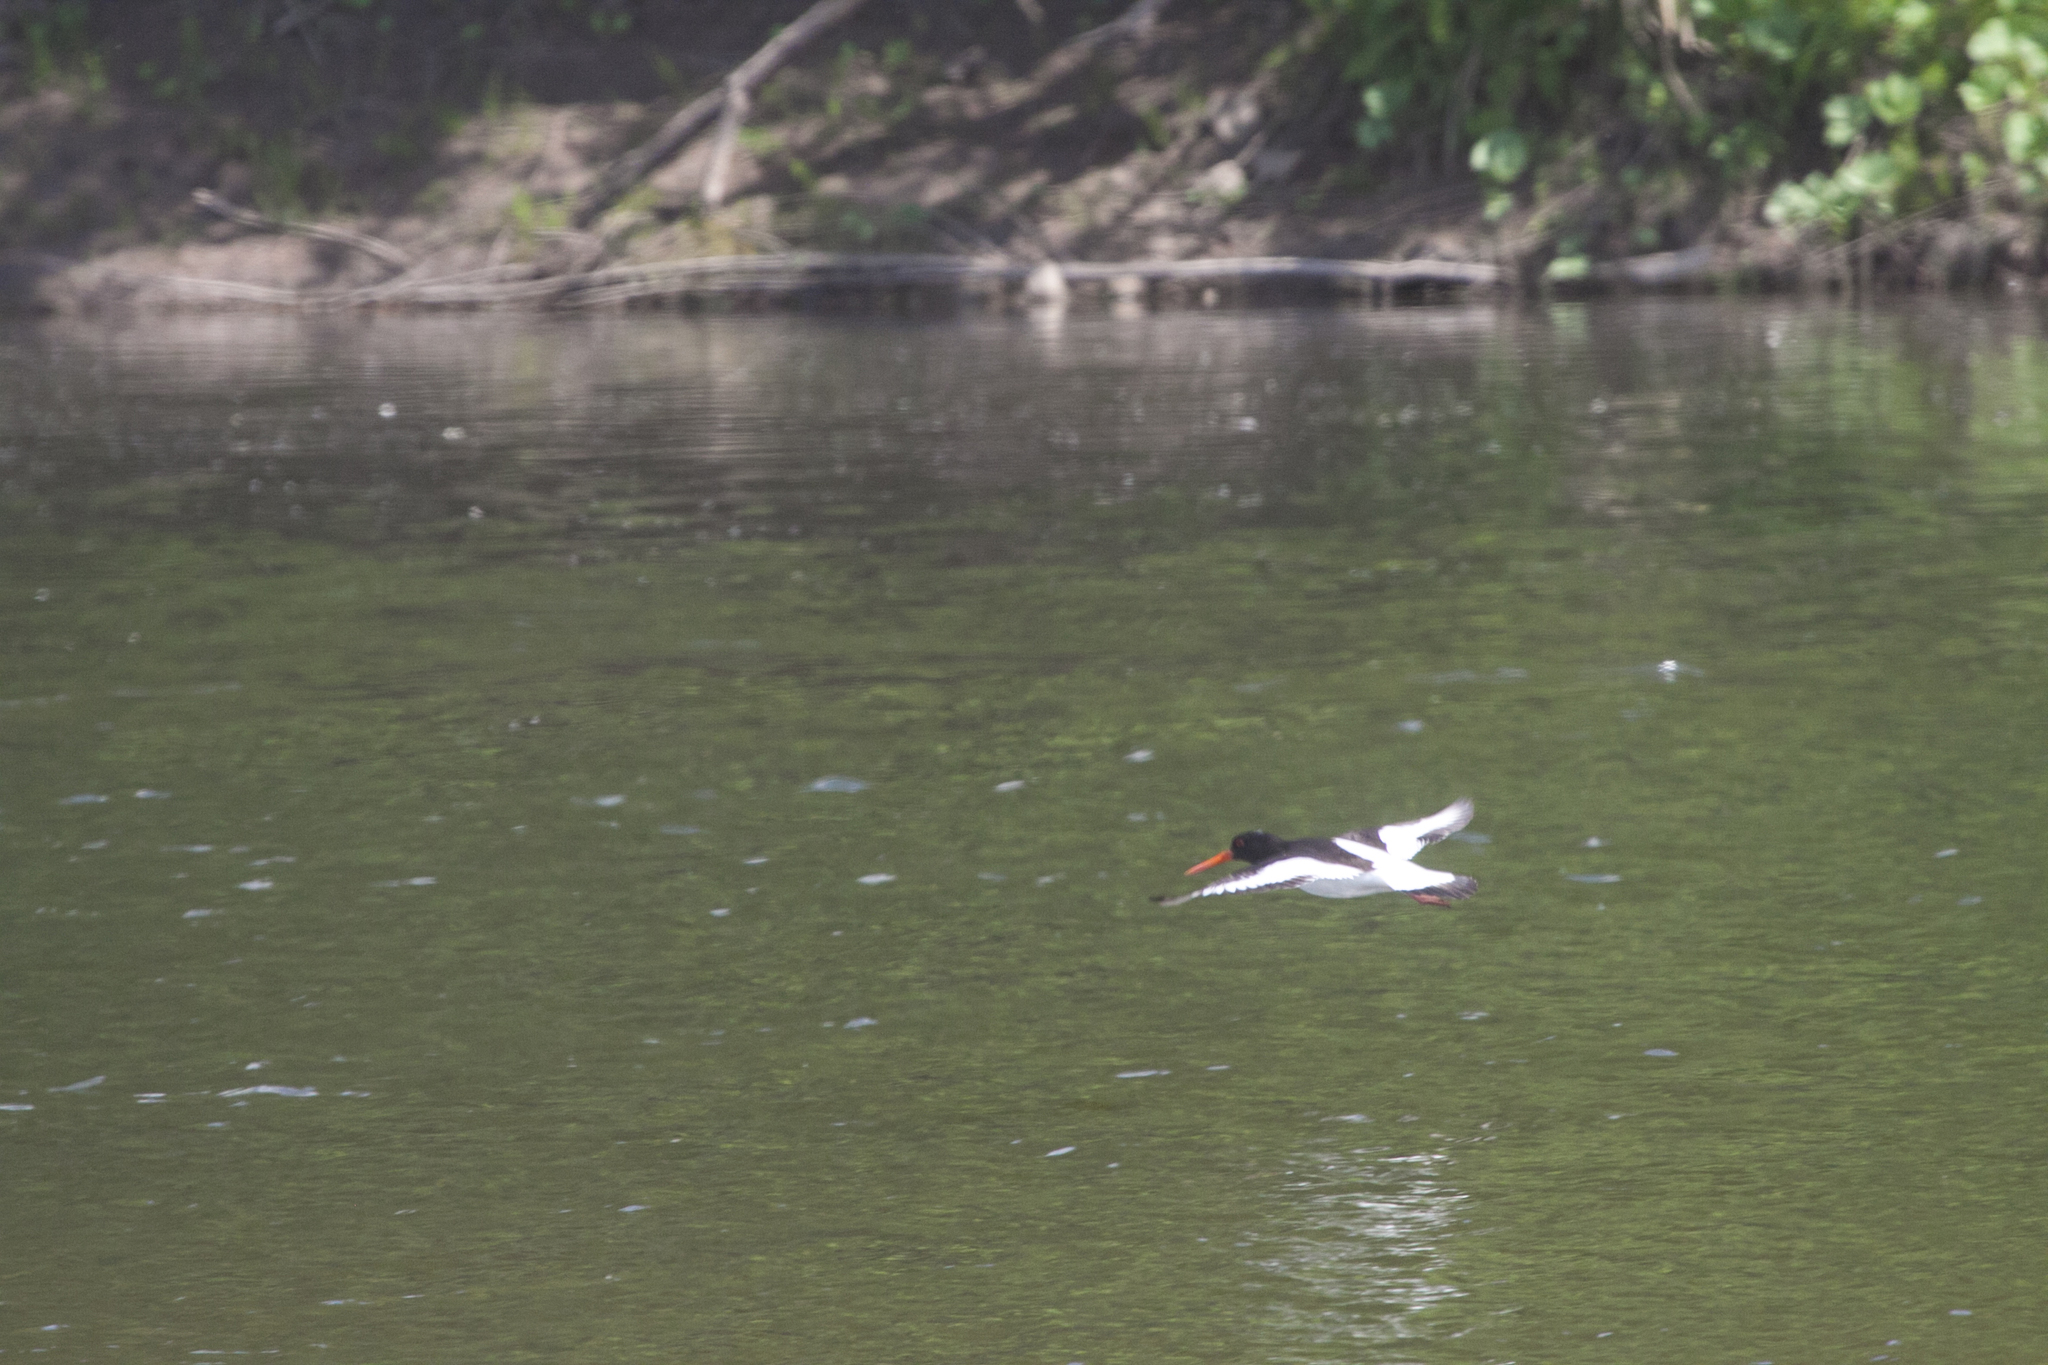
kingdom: Animalia
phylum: Chordata
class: Aves
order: Charadriiformes
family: Haematopodidae
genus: Haematopus
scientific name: Haematopus ostralegus
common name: Eurasian oystercatcher
